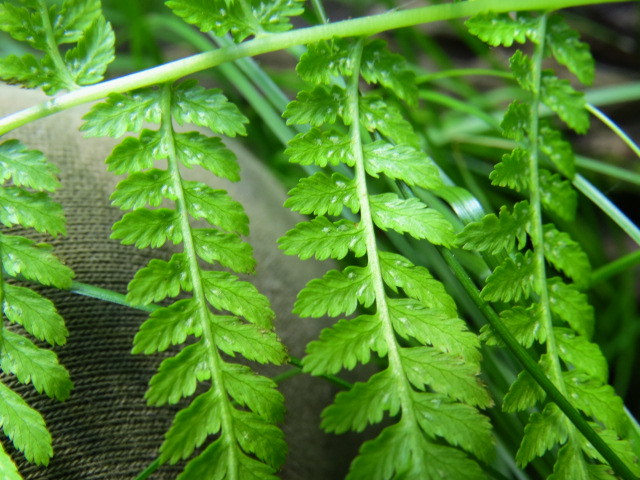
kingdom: Plantae
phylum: Tracheophyta
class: Polypodiopsida
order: Polypodiales
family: Athyriaceae
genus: Athyrium
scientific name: Athyrium filix-femina
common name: Lady fern
